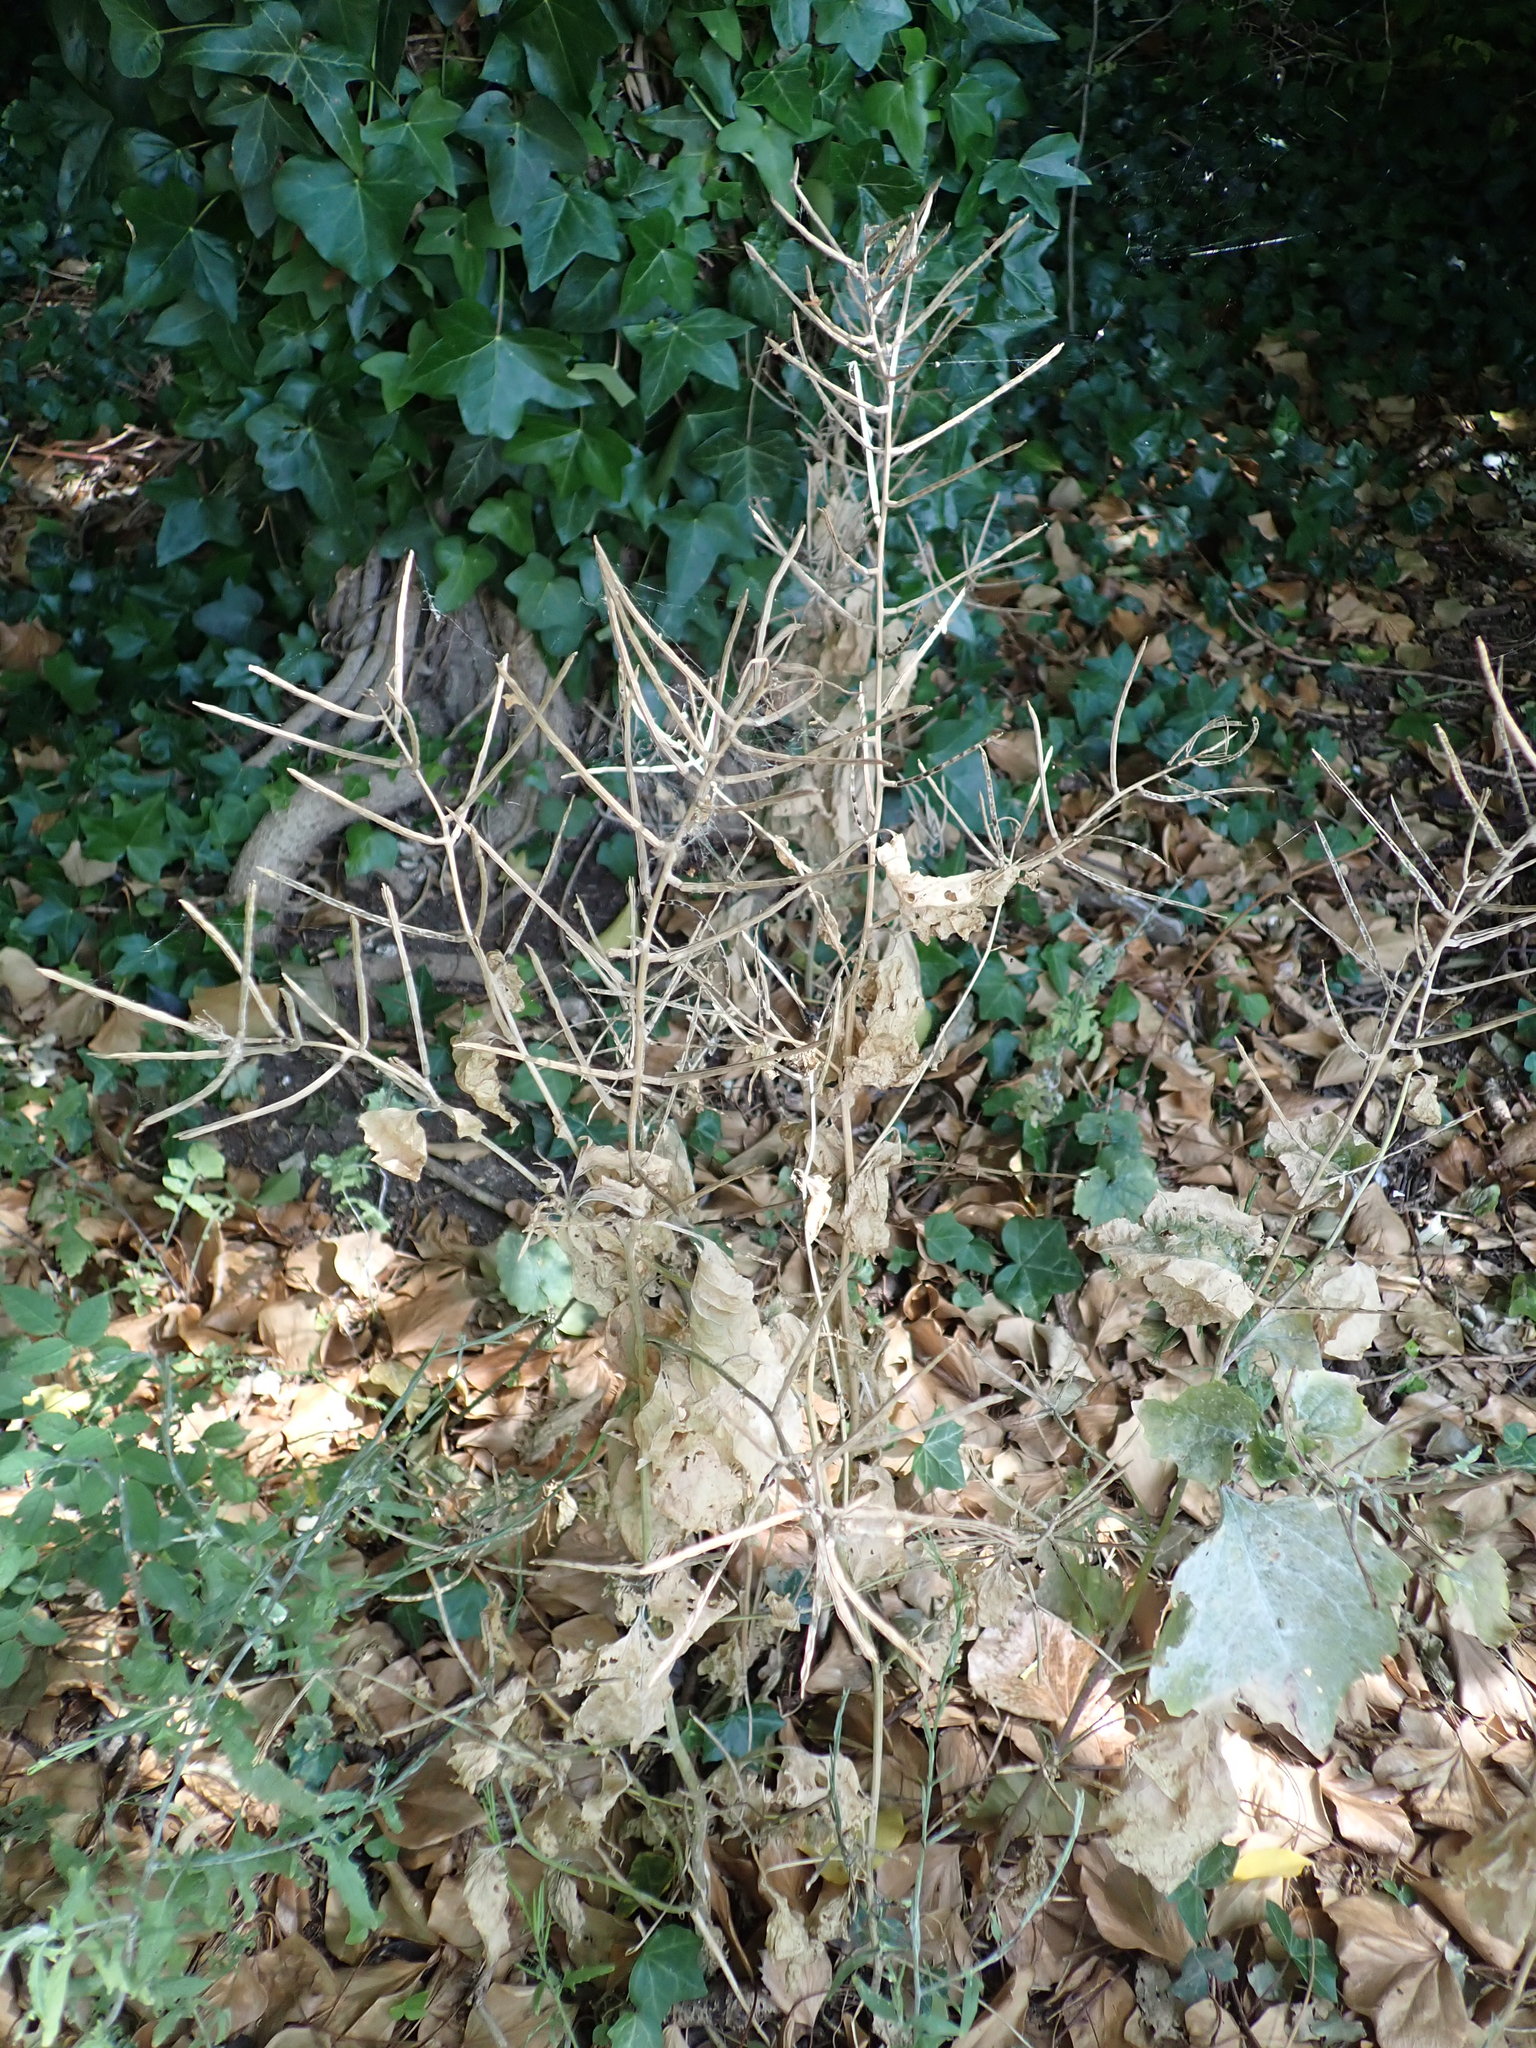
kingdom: Plantae
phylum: Tracheophyta
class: Magnoliopsida
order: Brassicales
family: Brassicaceae
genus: Alliaria
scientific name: Alliaria petiolata
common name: Garlic mustard
